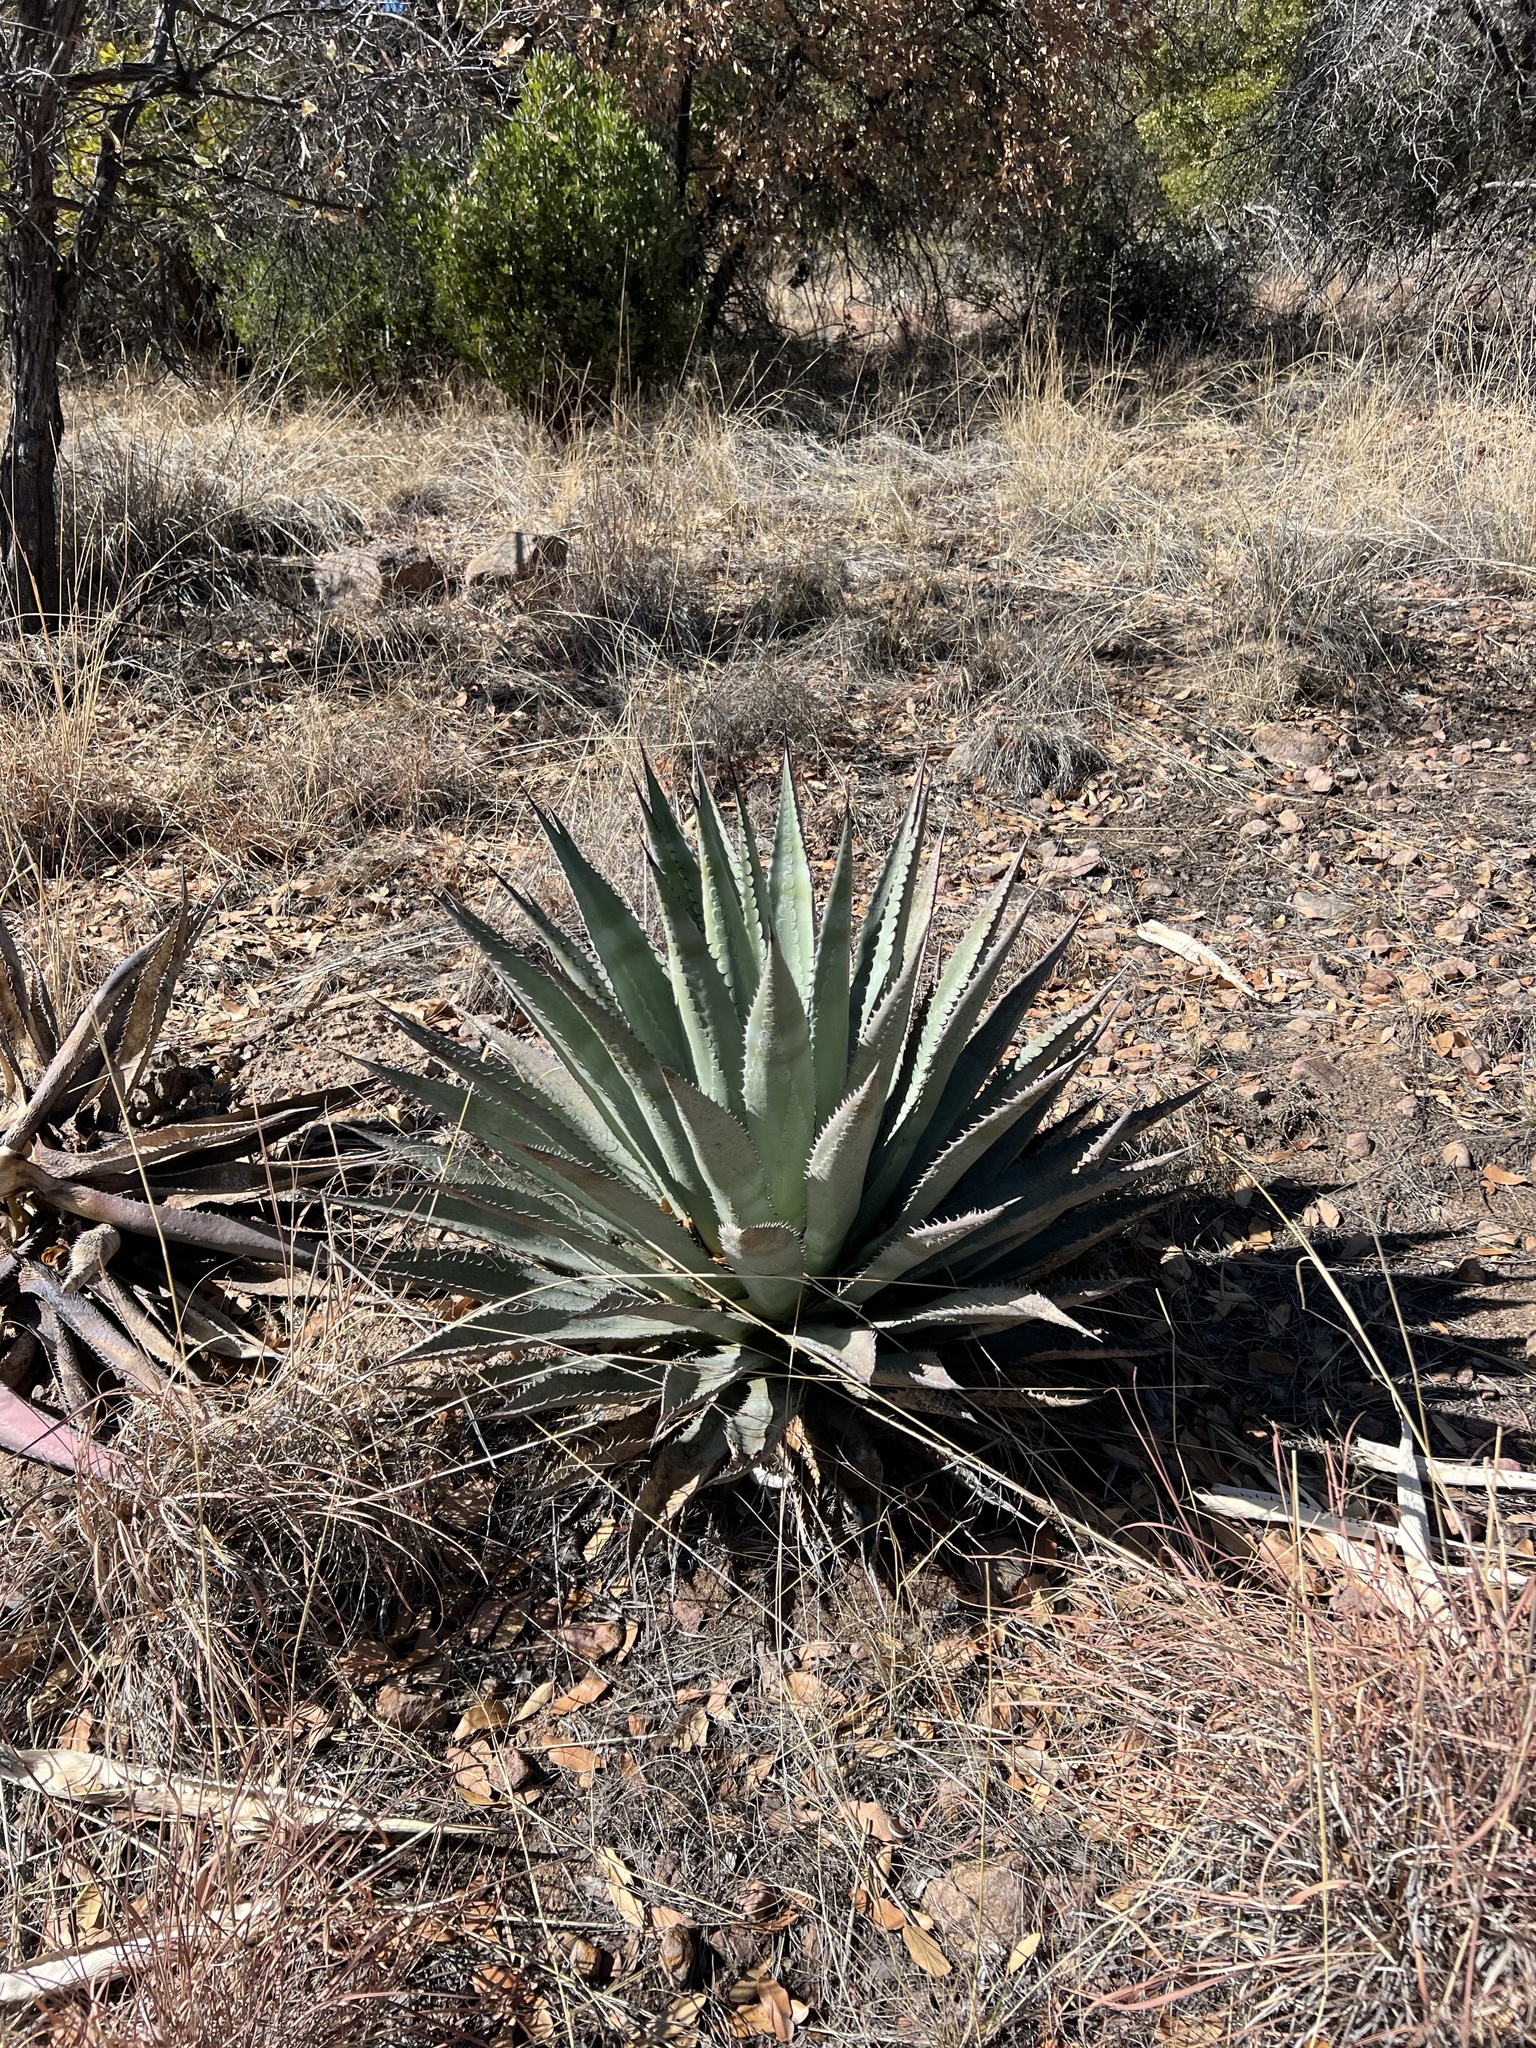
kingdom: Plantae
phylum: Tracheophyta
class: Liliopsida
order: Asparagales
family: Asparagaceae
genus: Agave
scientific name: Agave palmeri
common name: Palmer agave
